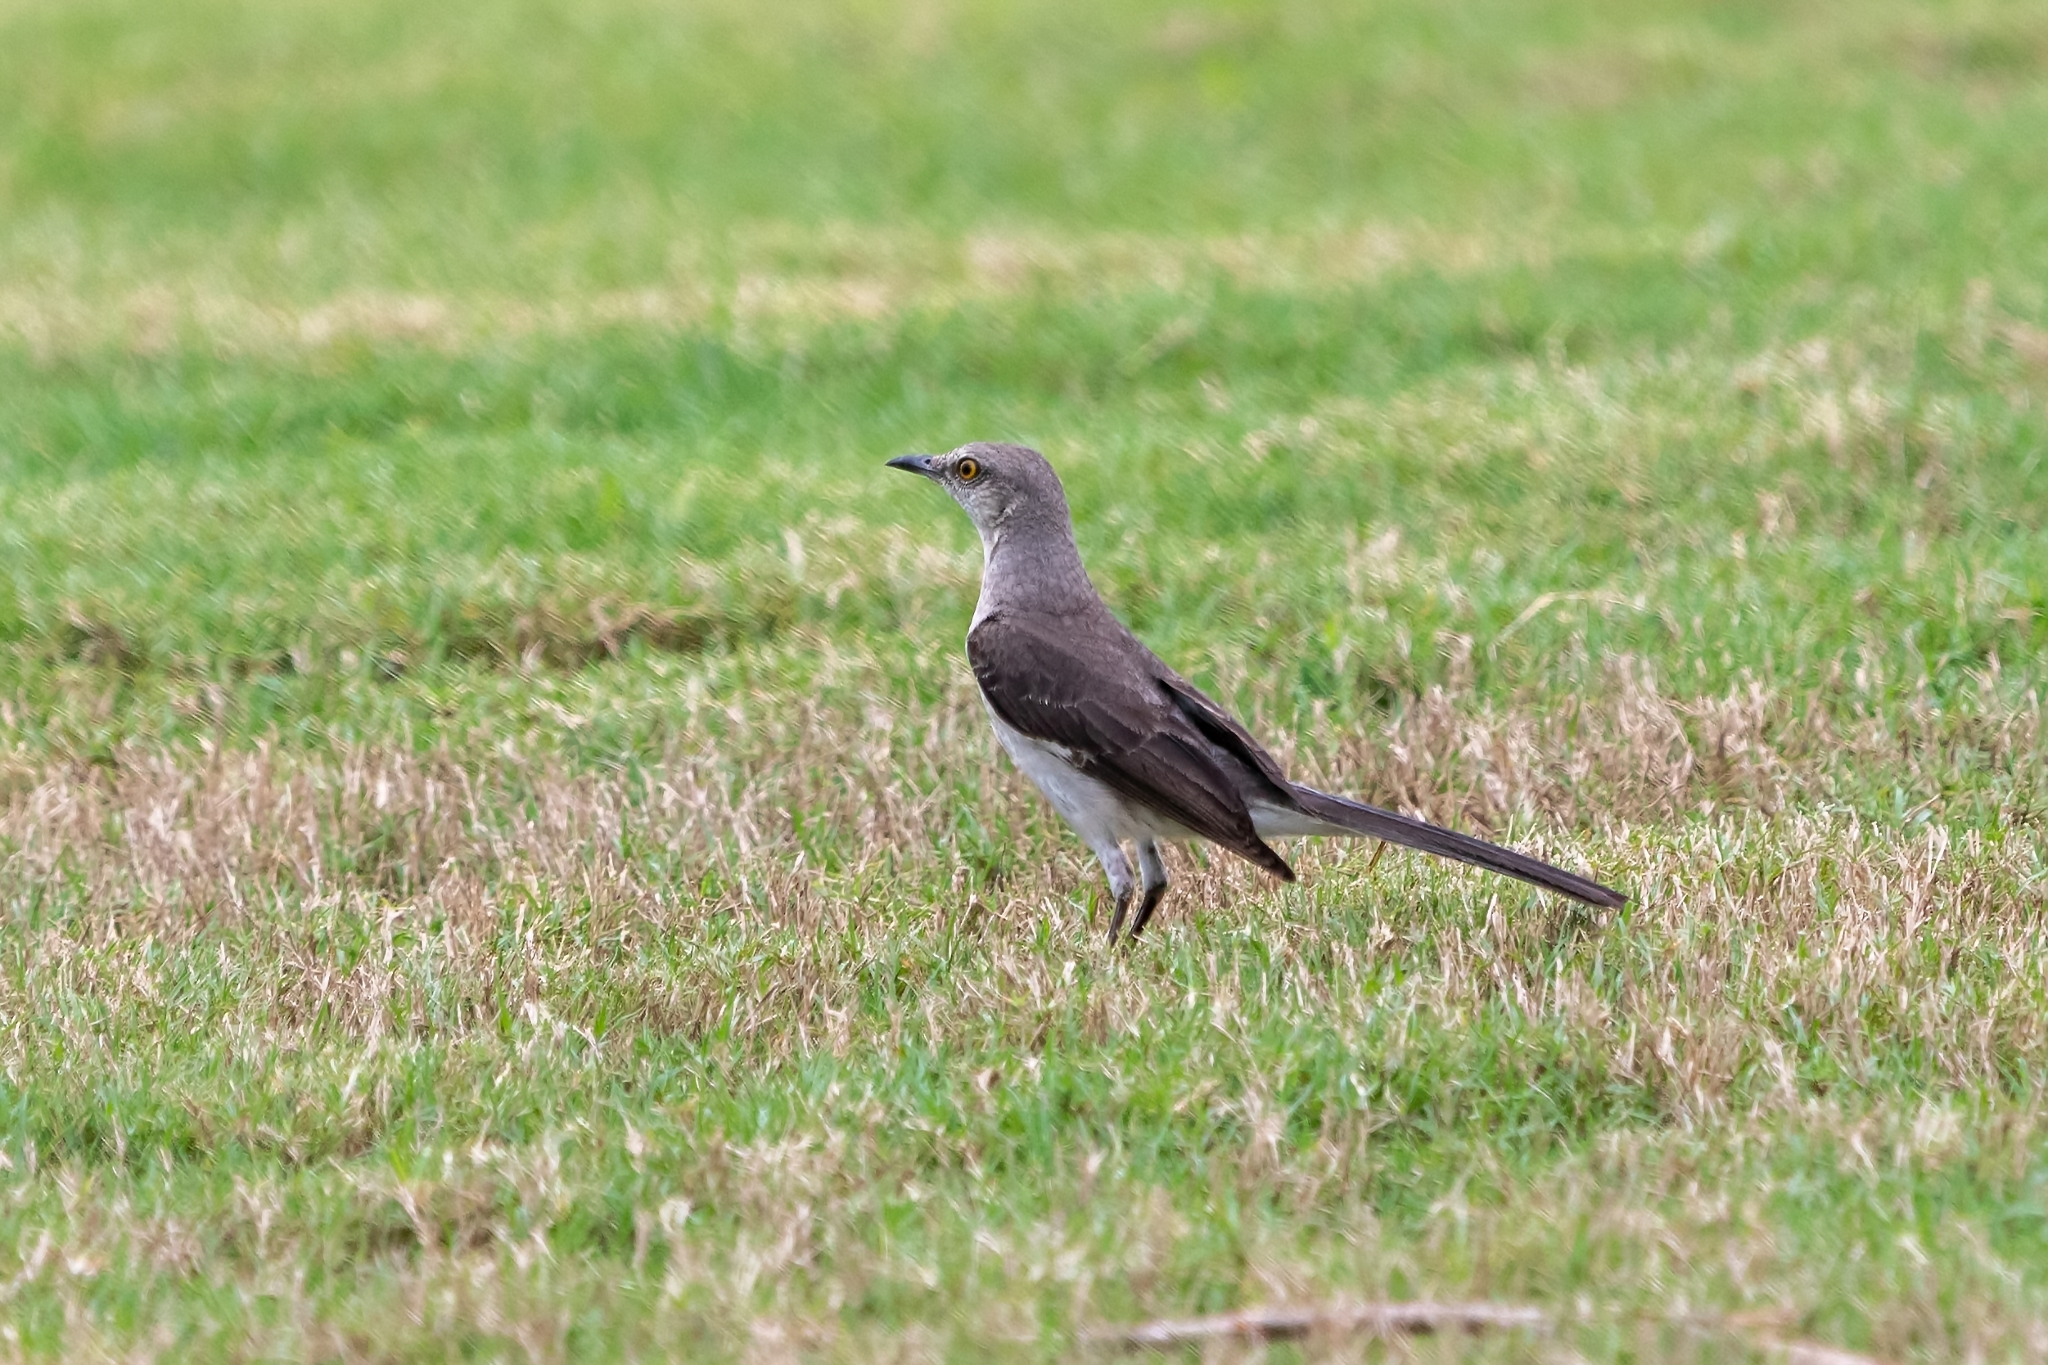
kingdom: Animalia
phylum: Chordata
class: Aves
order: Passeriformes
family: Mimidae
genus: Mimus
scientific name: Mimus polyglottos
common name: Northern mockingbird
